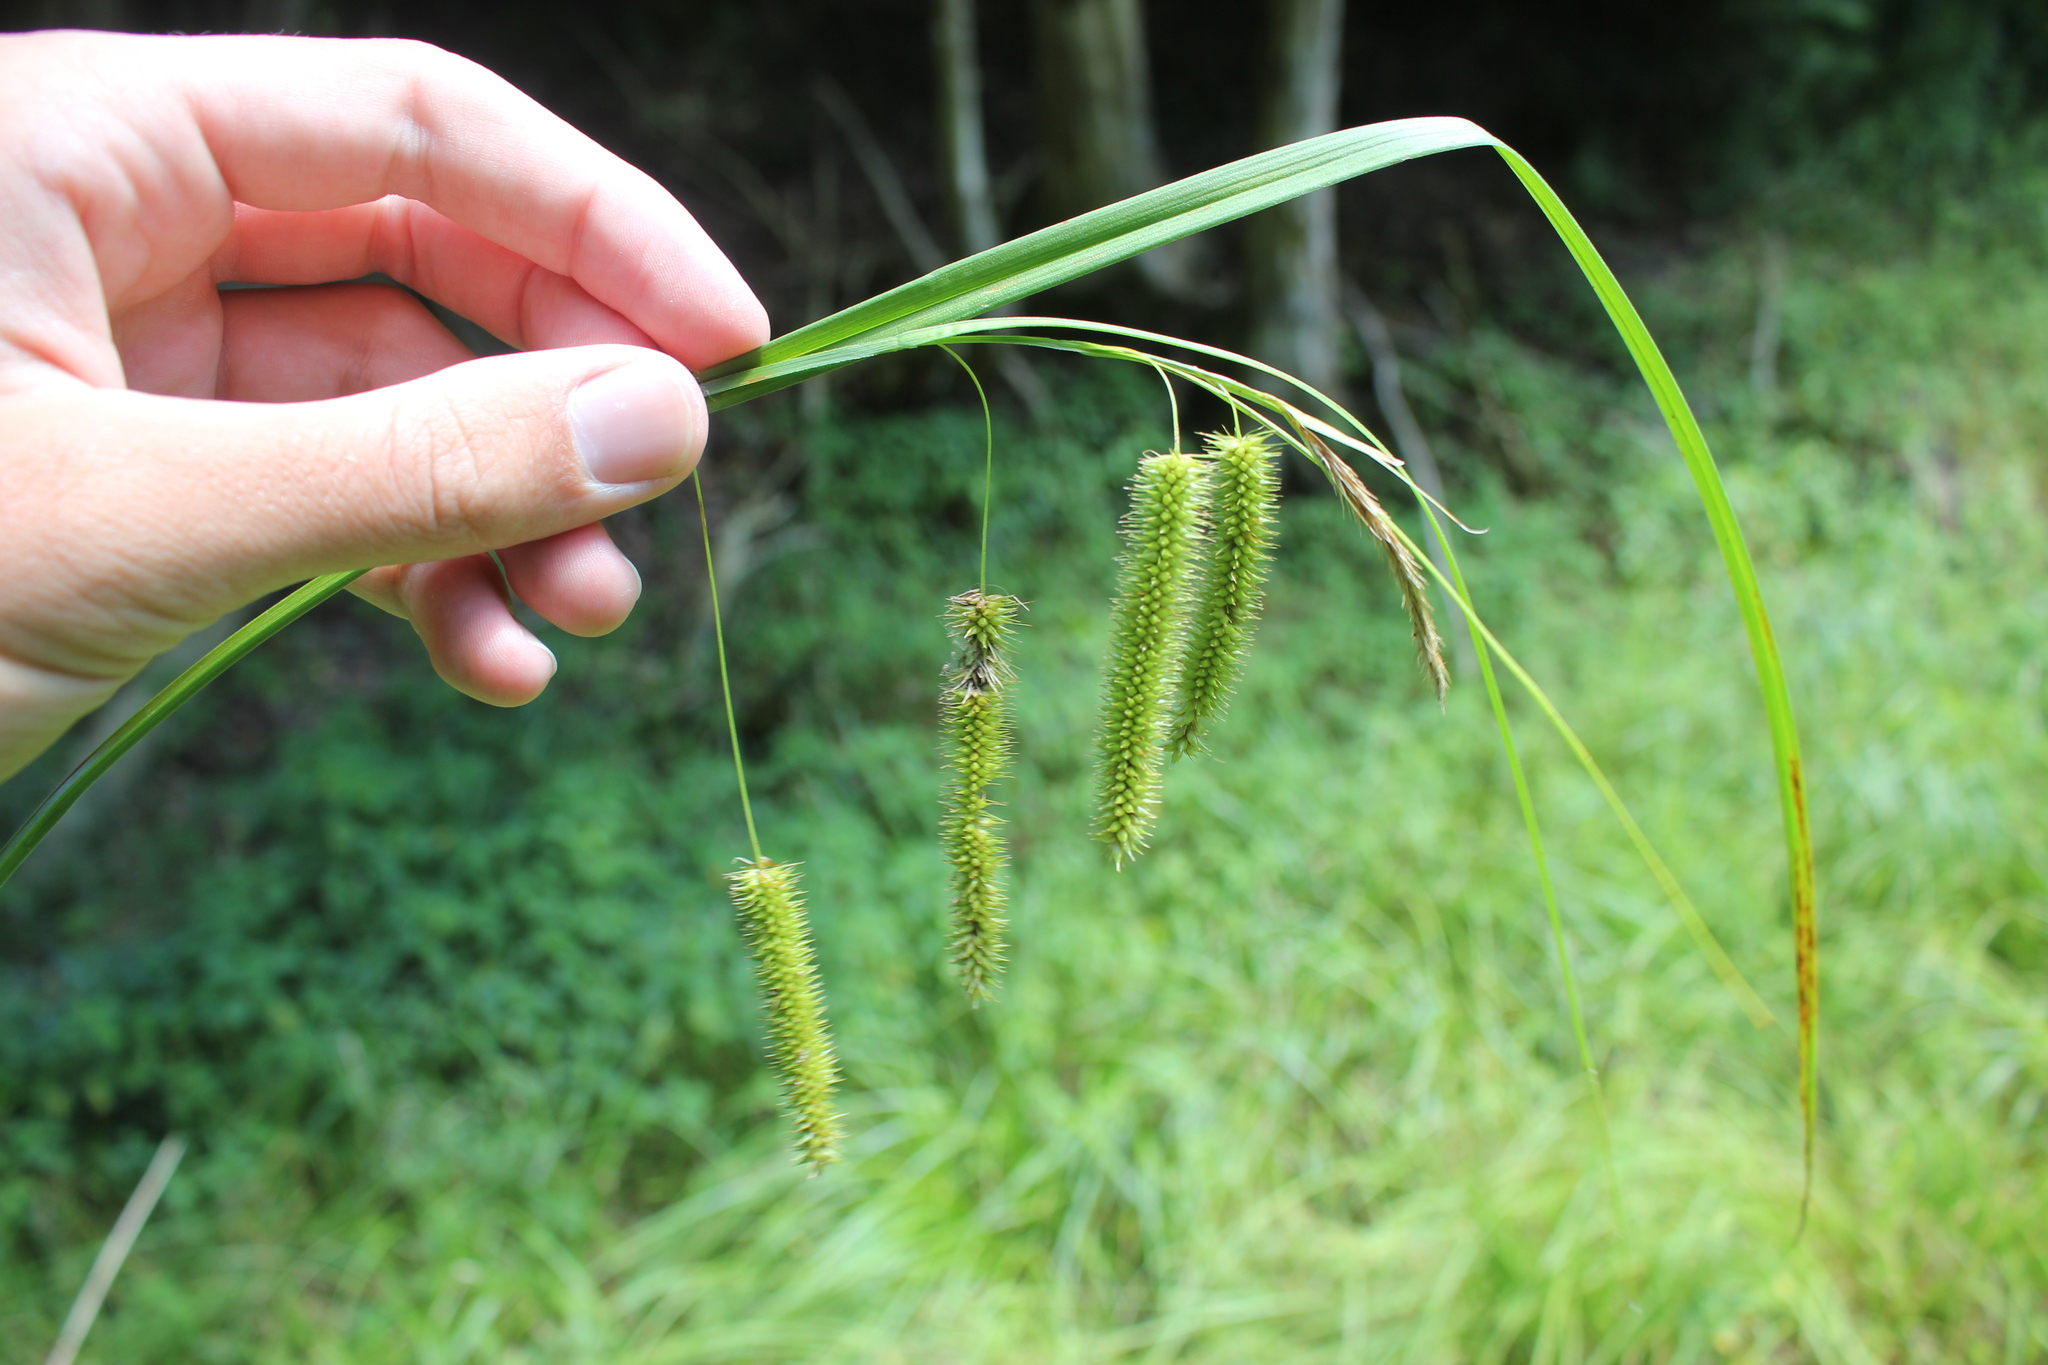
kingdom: Plantae
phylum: Tracheophyta
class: Liliopsida
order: Poales
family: Cyperaceae
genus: Carex
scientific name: Carex pseudocyperus
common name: Cyperus sedge
